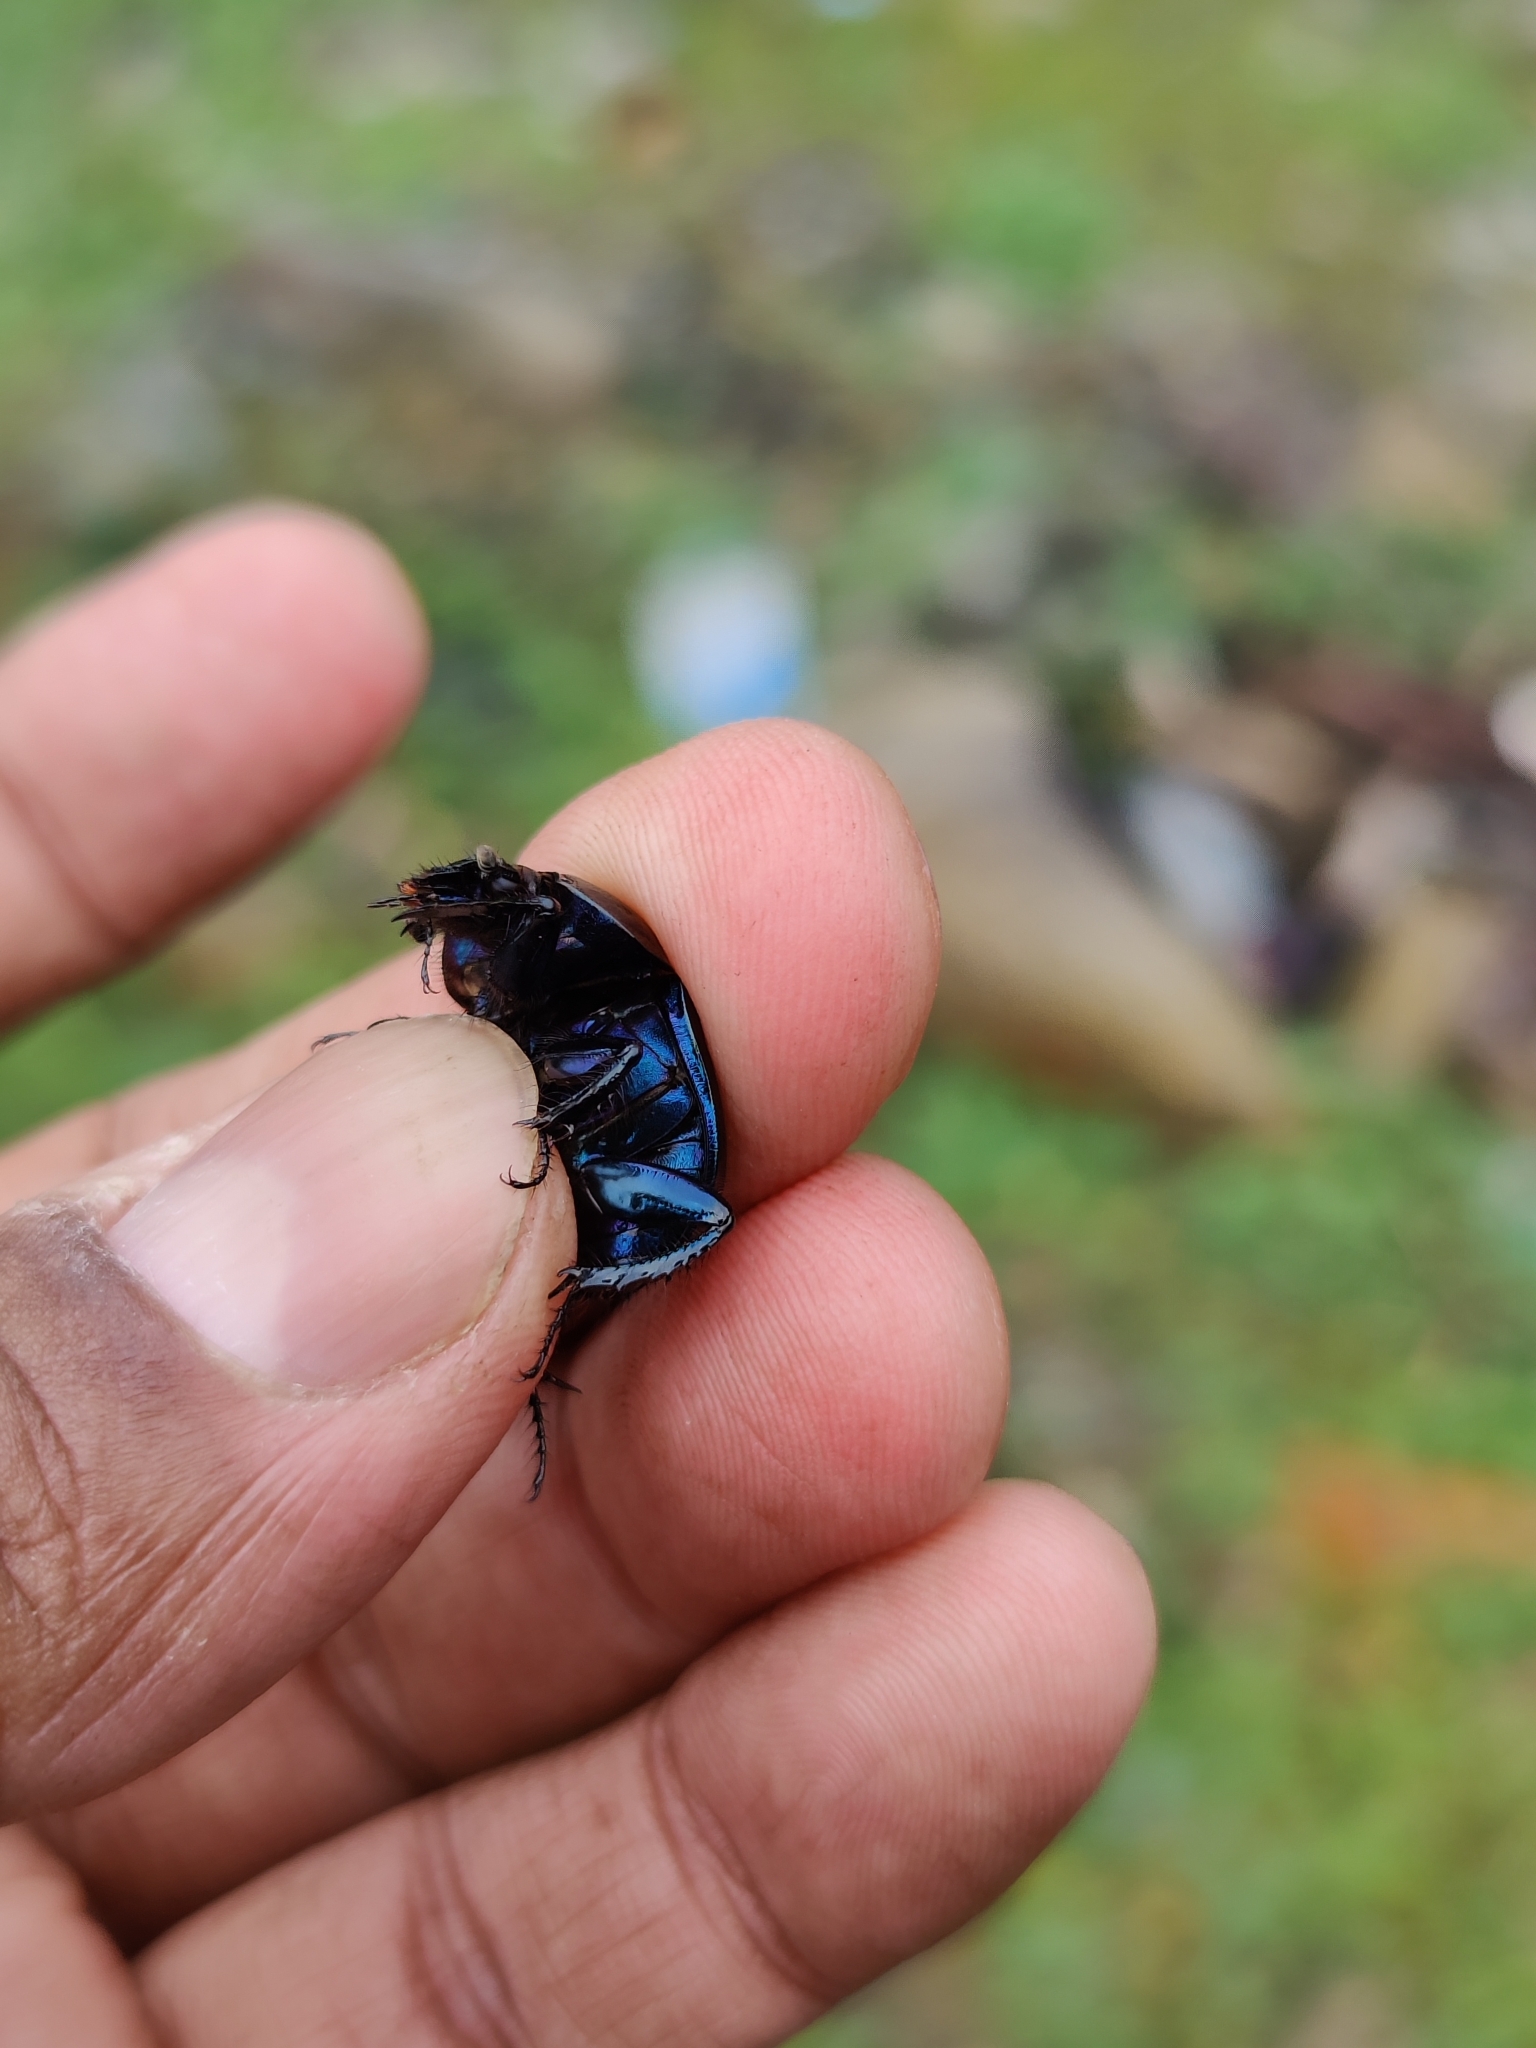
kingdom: Animalia
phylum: Arthropoda
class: Insecta
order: Coleoptera
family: Geotrupidae
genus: Phelotrupes
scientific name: Phelotrupes laevifrons
